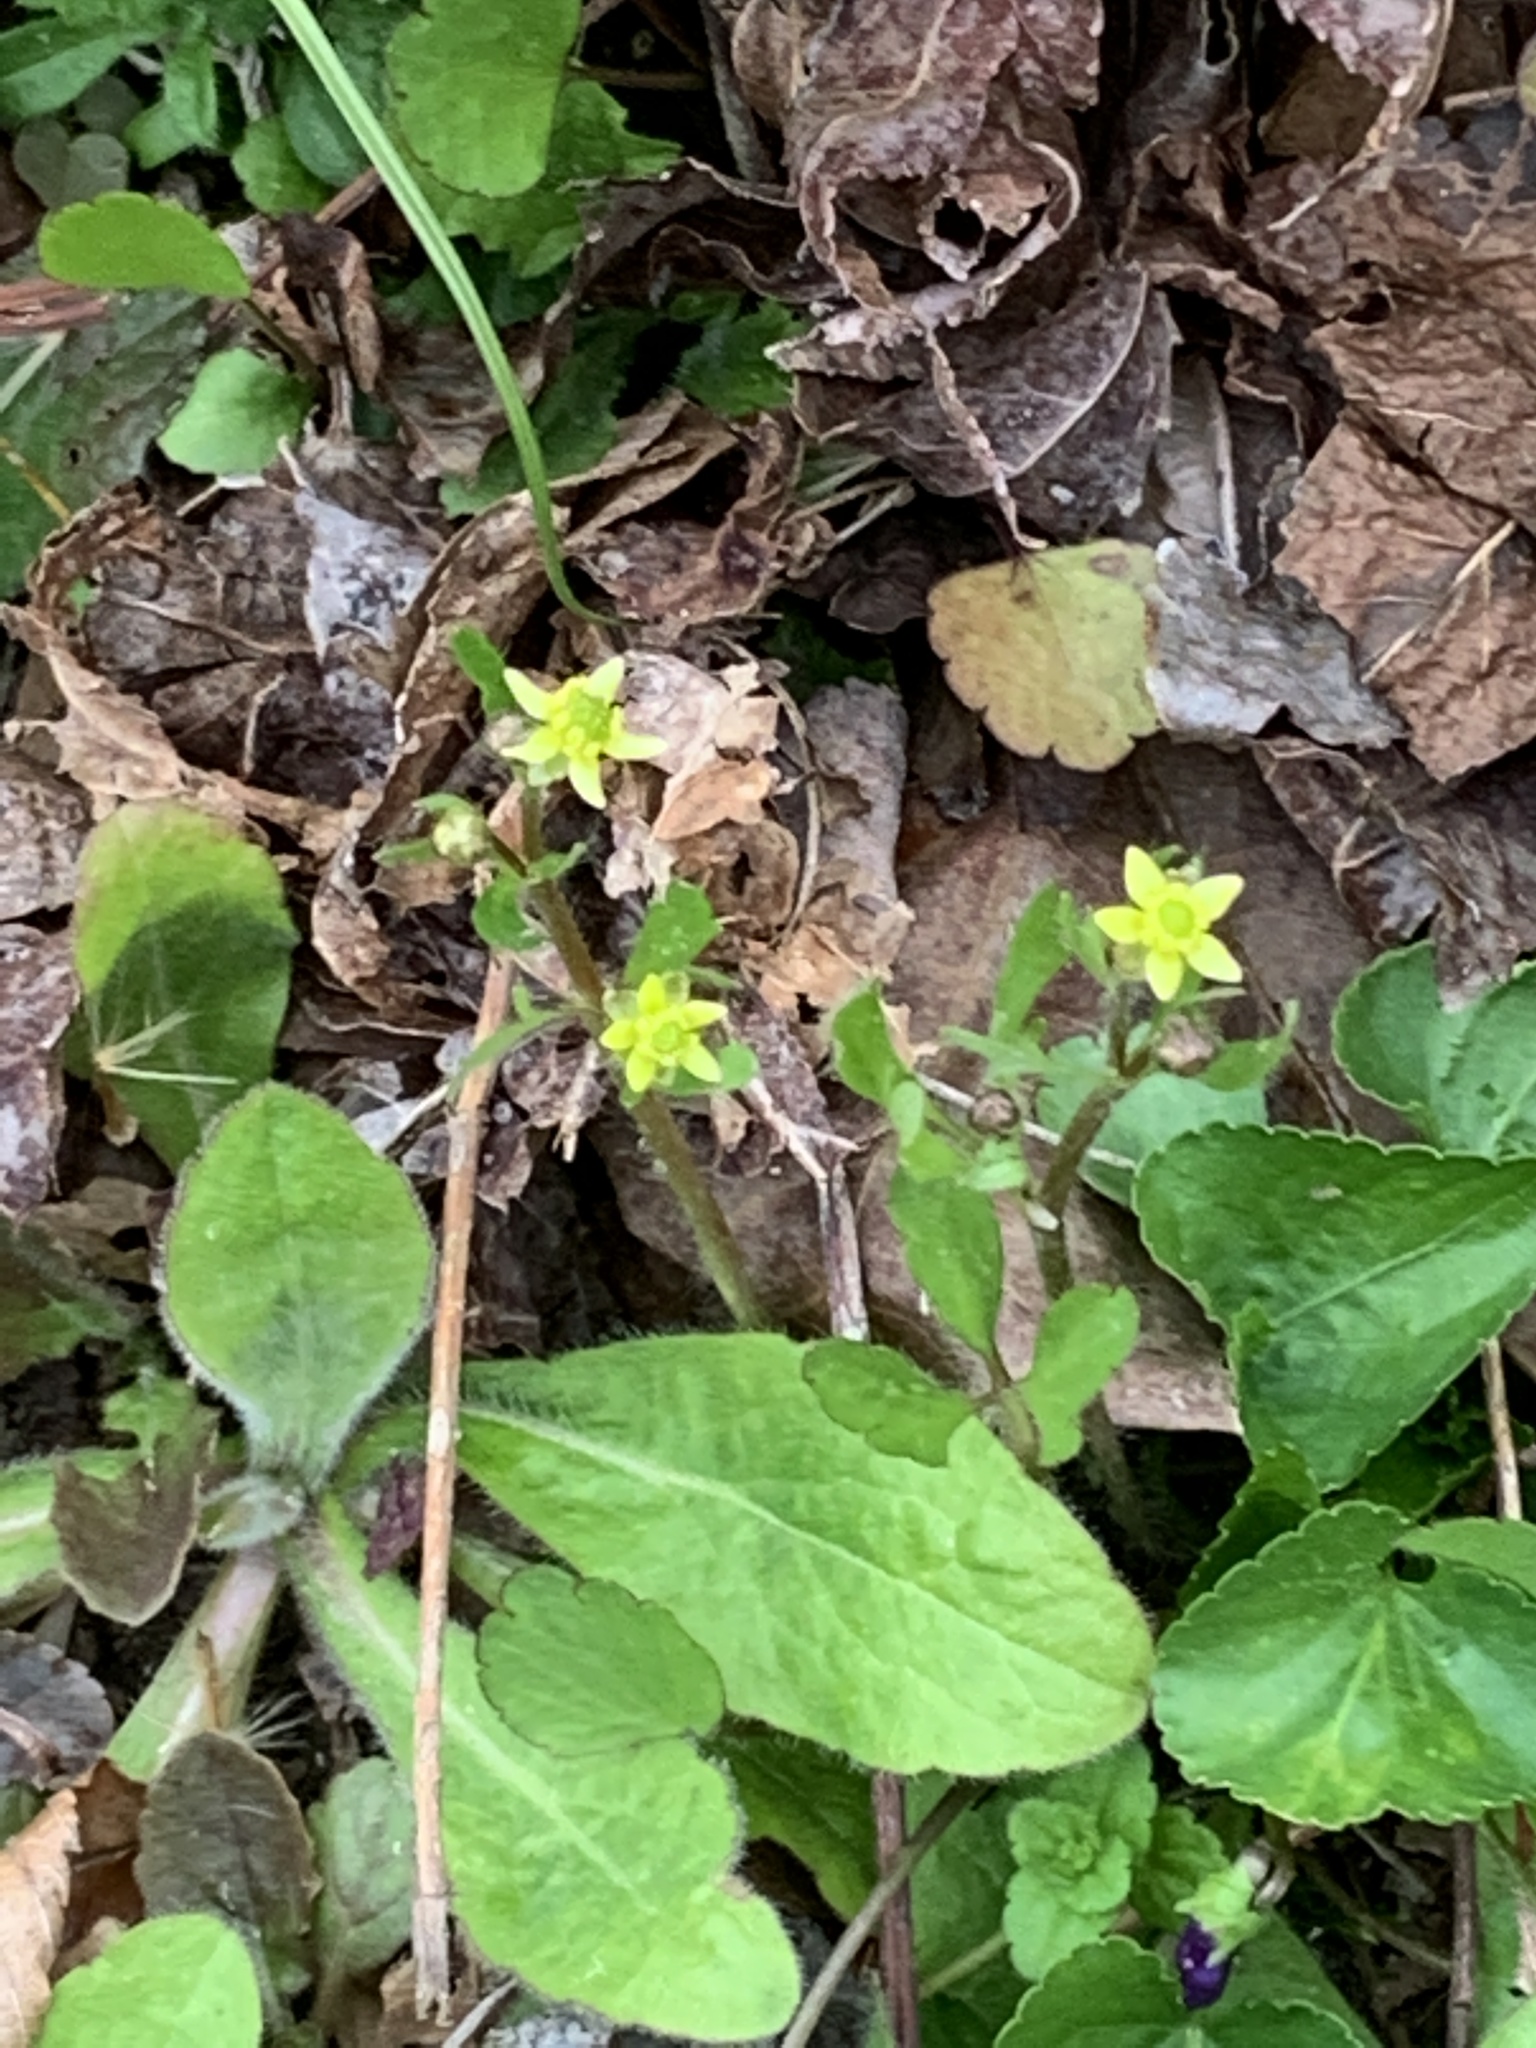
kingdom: Plantae
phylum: Tracheophyta
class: Magnoliopsida
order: Ranunculales
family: Ranunculaceae
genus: Ranunculus
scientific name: Ranunculus micranthus
